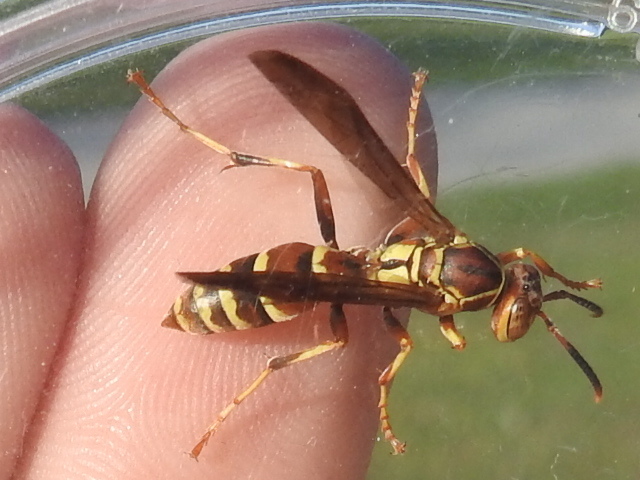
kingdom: Animalia
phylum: Arthropoda
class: Insecta
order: Hymenoptera
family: Eumenidae
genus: Polistes
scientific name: Polistes dorsalis
